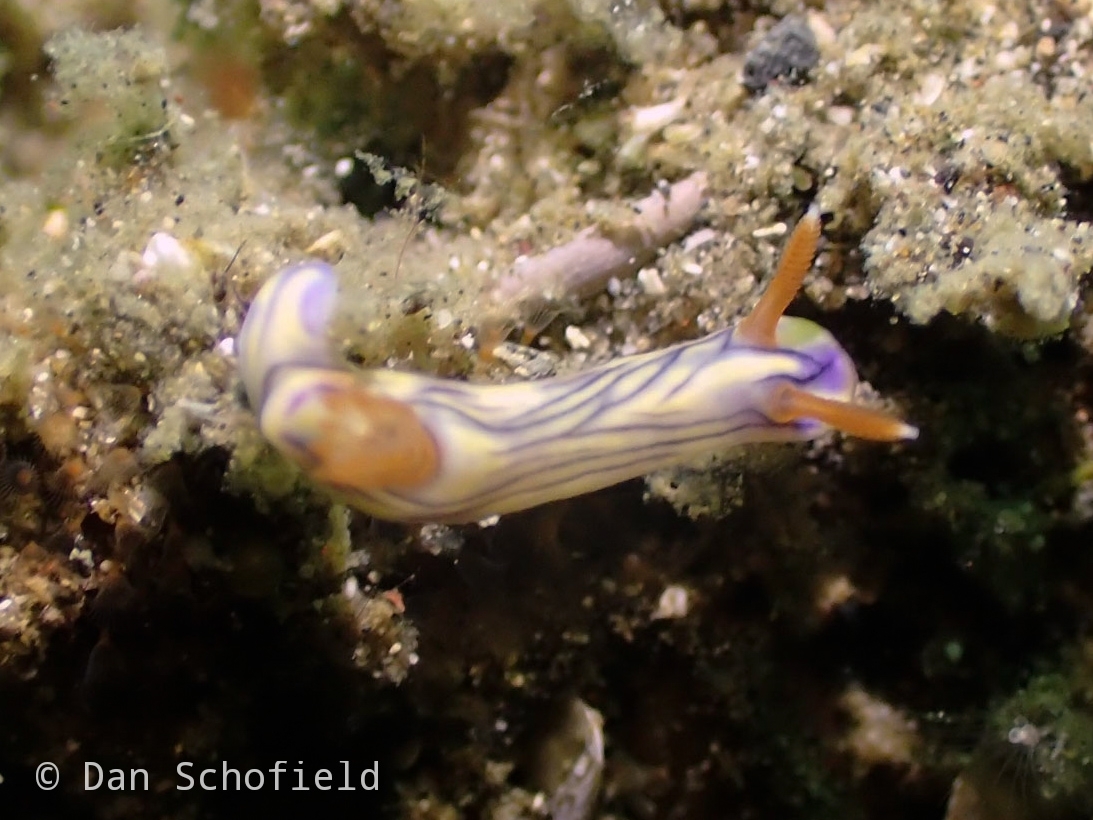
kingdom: Animalia
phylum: Mollusca
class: Gastropoda
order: Nudibranchia
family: Chromodorididae
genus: Hypselodoris
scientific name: Hypselodoris zephyra
